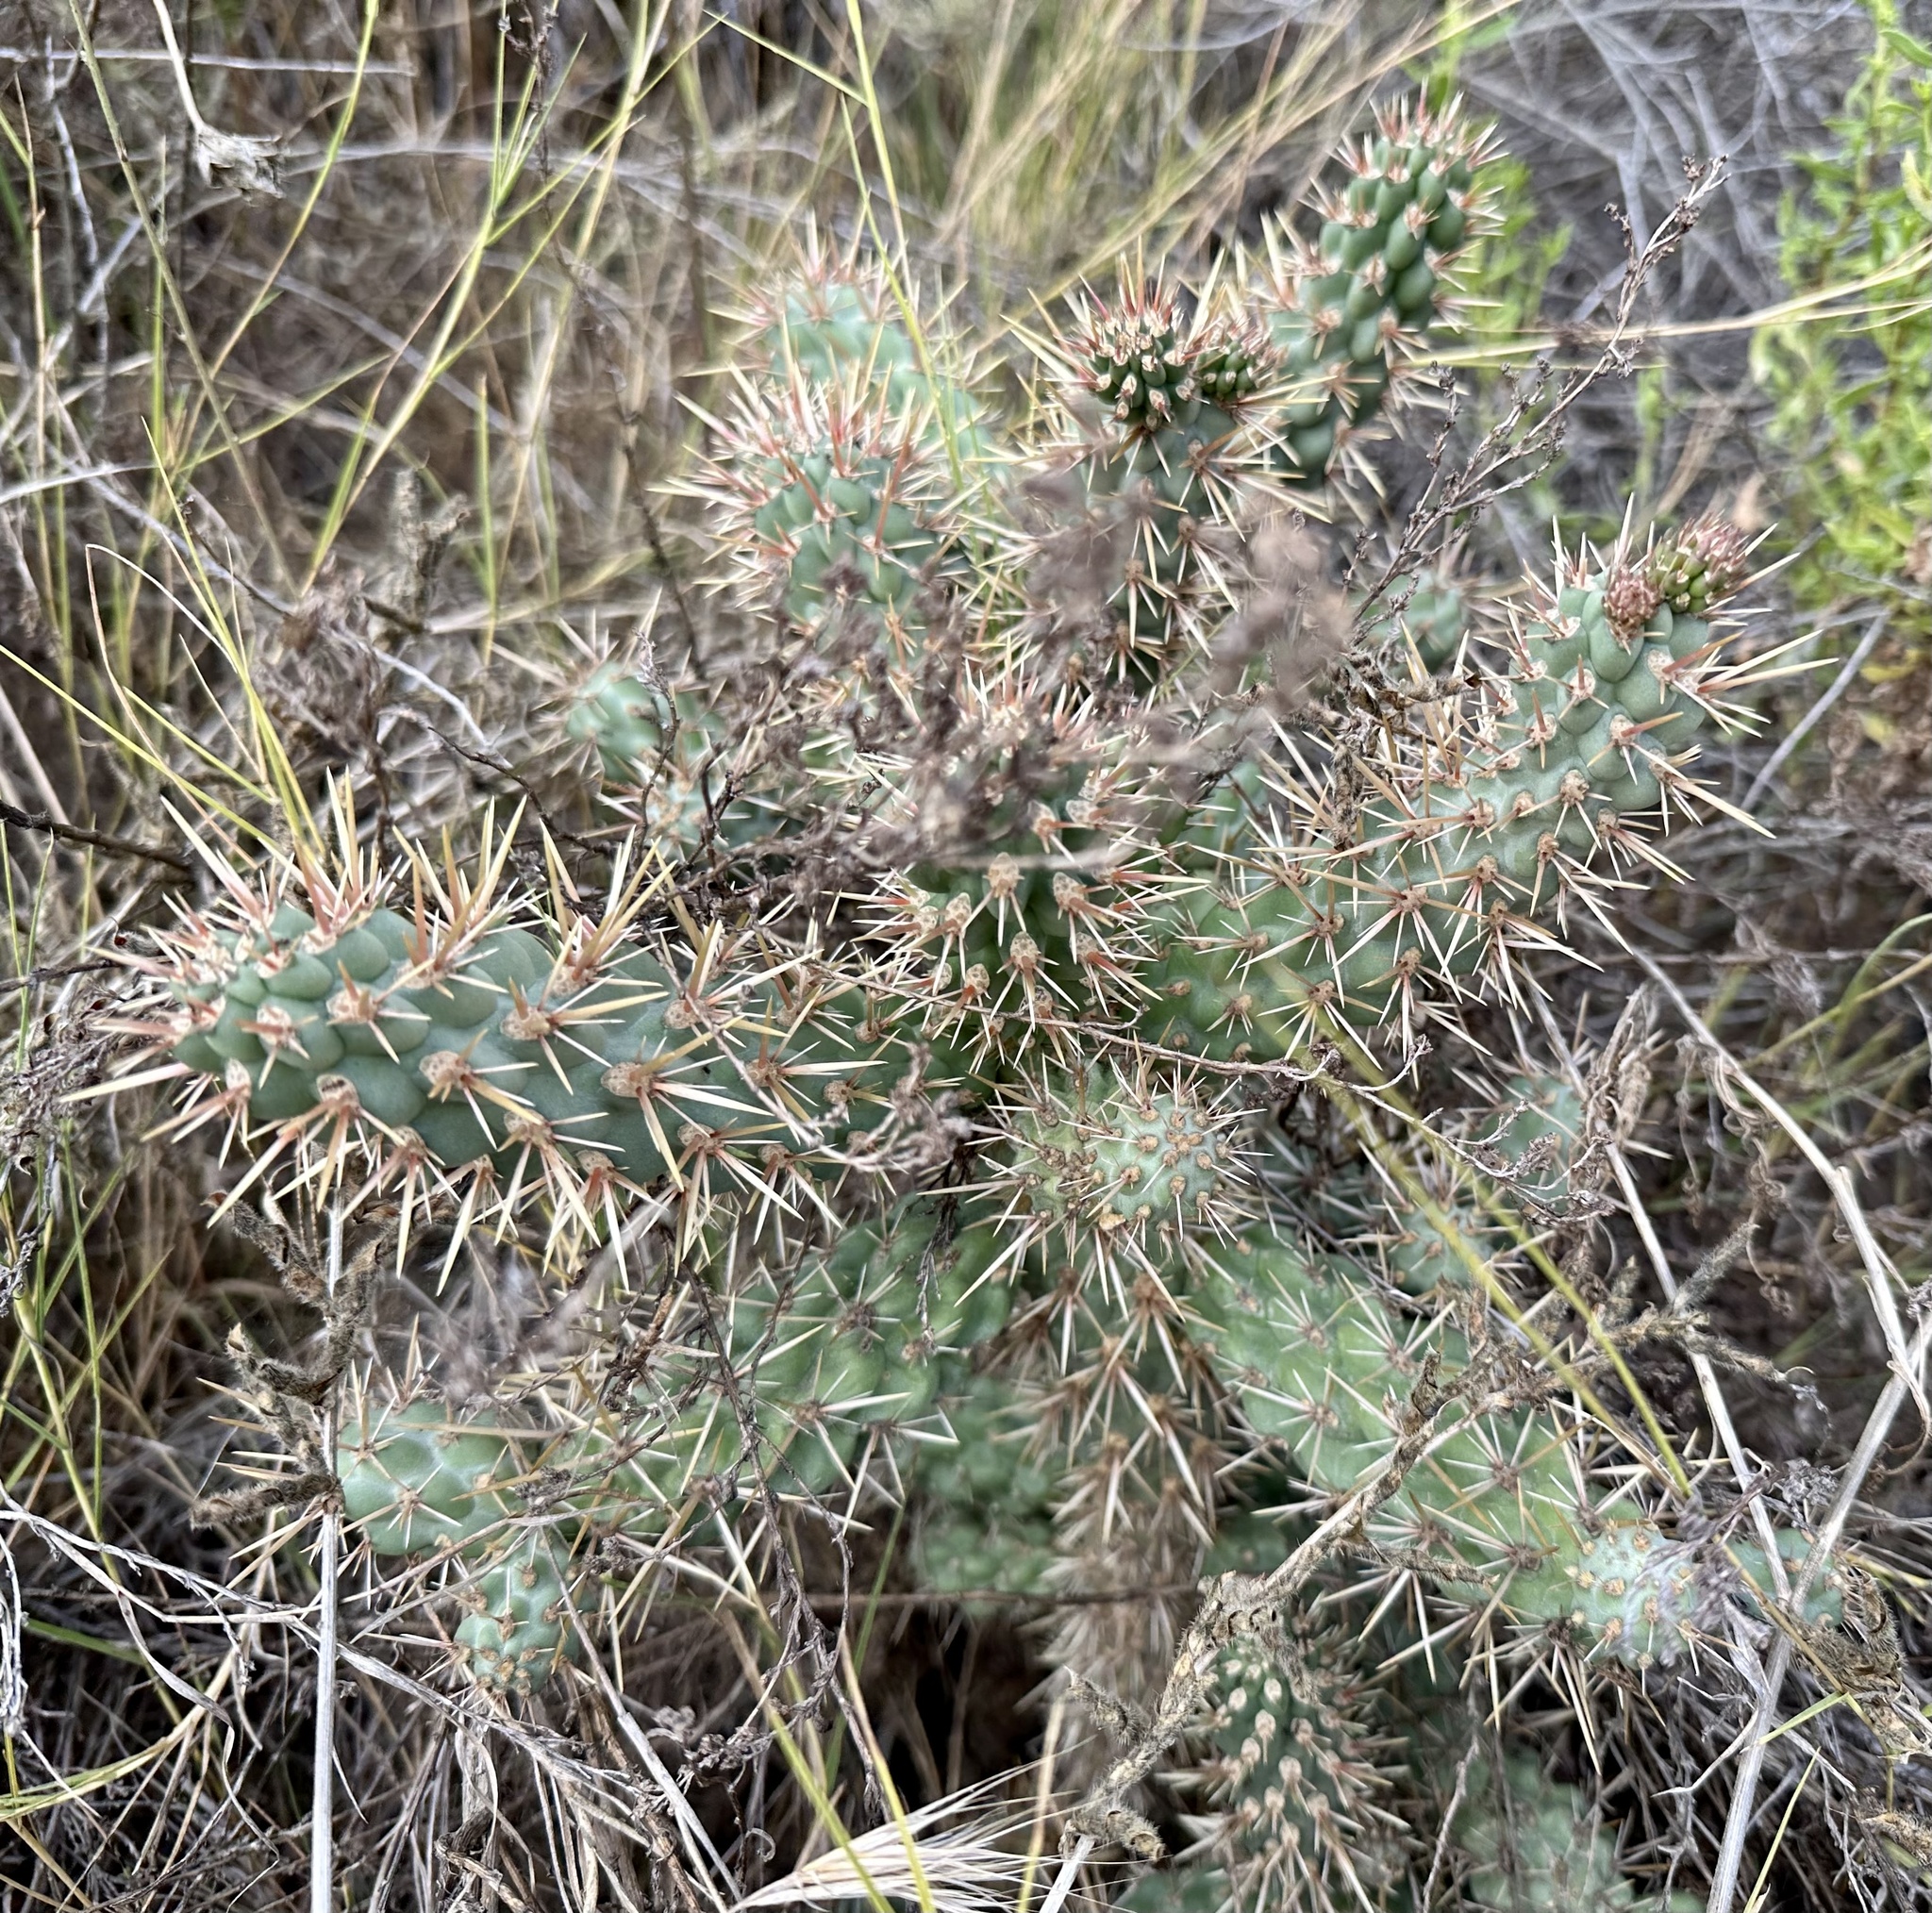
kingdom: Plantae
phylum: Tracheophyta
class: Magnoliopsida
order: Caryophyllales
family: Cactaceae
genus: Cylindropuntia
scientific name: Cylindropuntia prolifera
